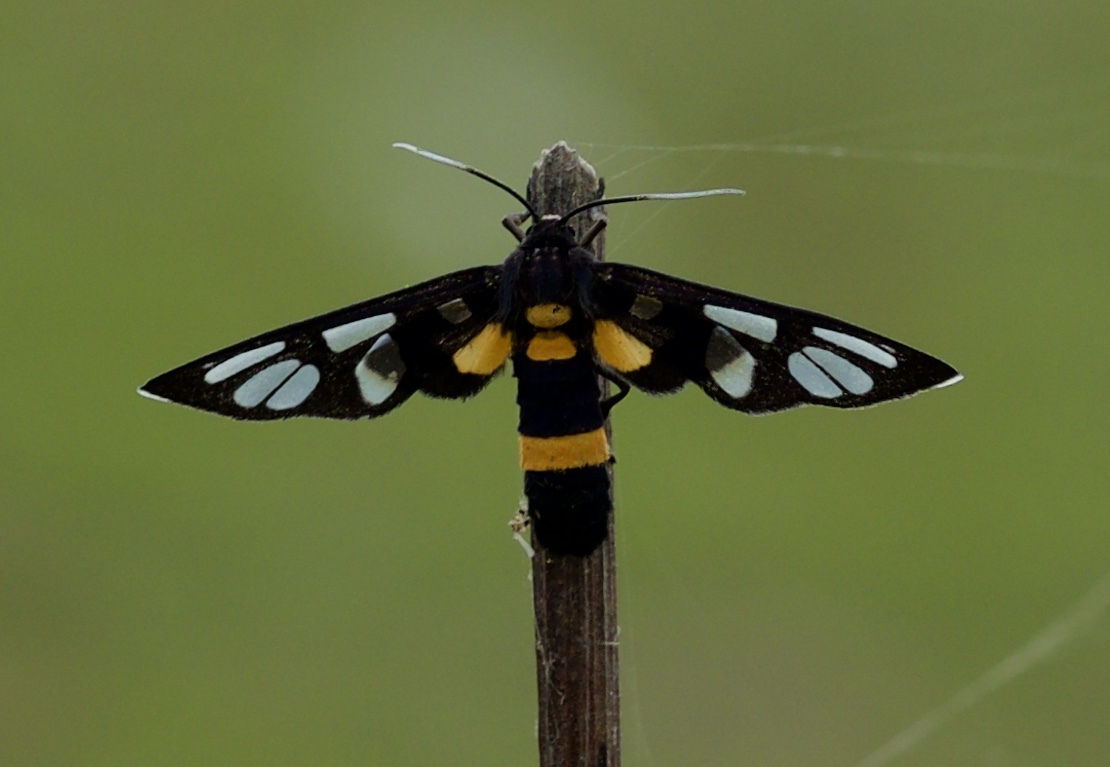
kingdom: Animalia
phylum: Arthropoda
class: Insecta
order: Lepidoptera
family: Erebidae
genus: Amata
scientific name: Amata sperbius
